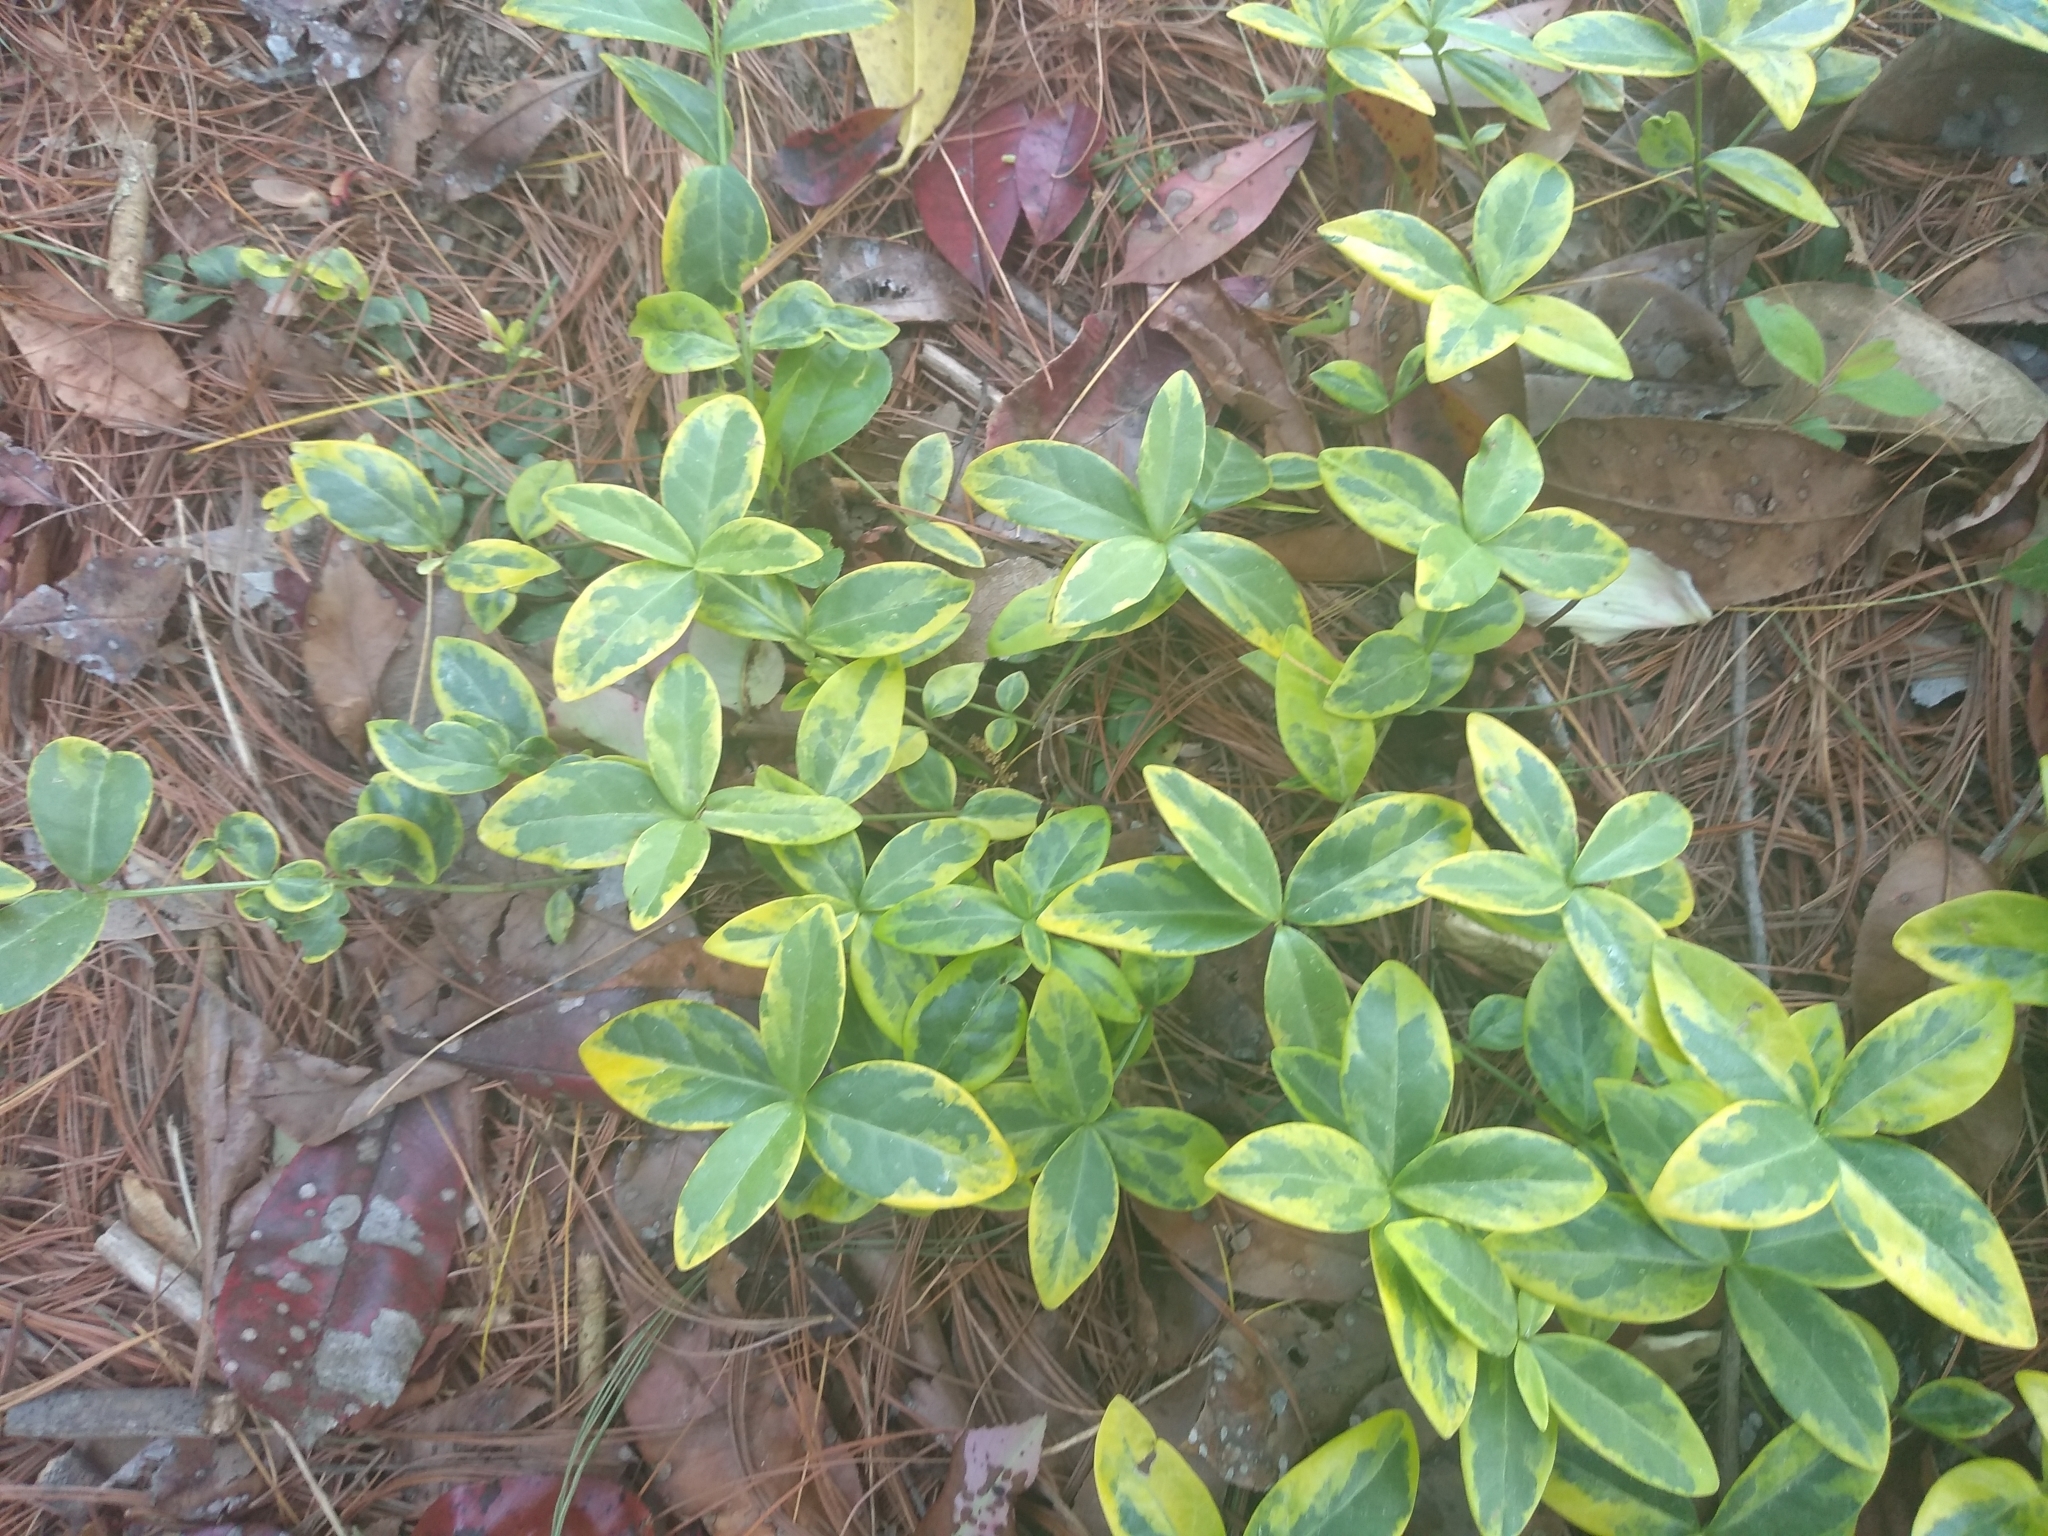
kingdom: Plantae
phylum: Tracheophyta
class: Magnoliopsida
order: Gentianales
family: Apocynaceae
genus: Vinca
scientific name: Vinca minor
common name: Lesser periwinkle
